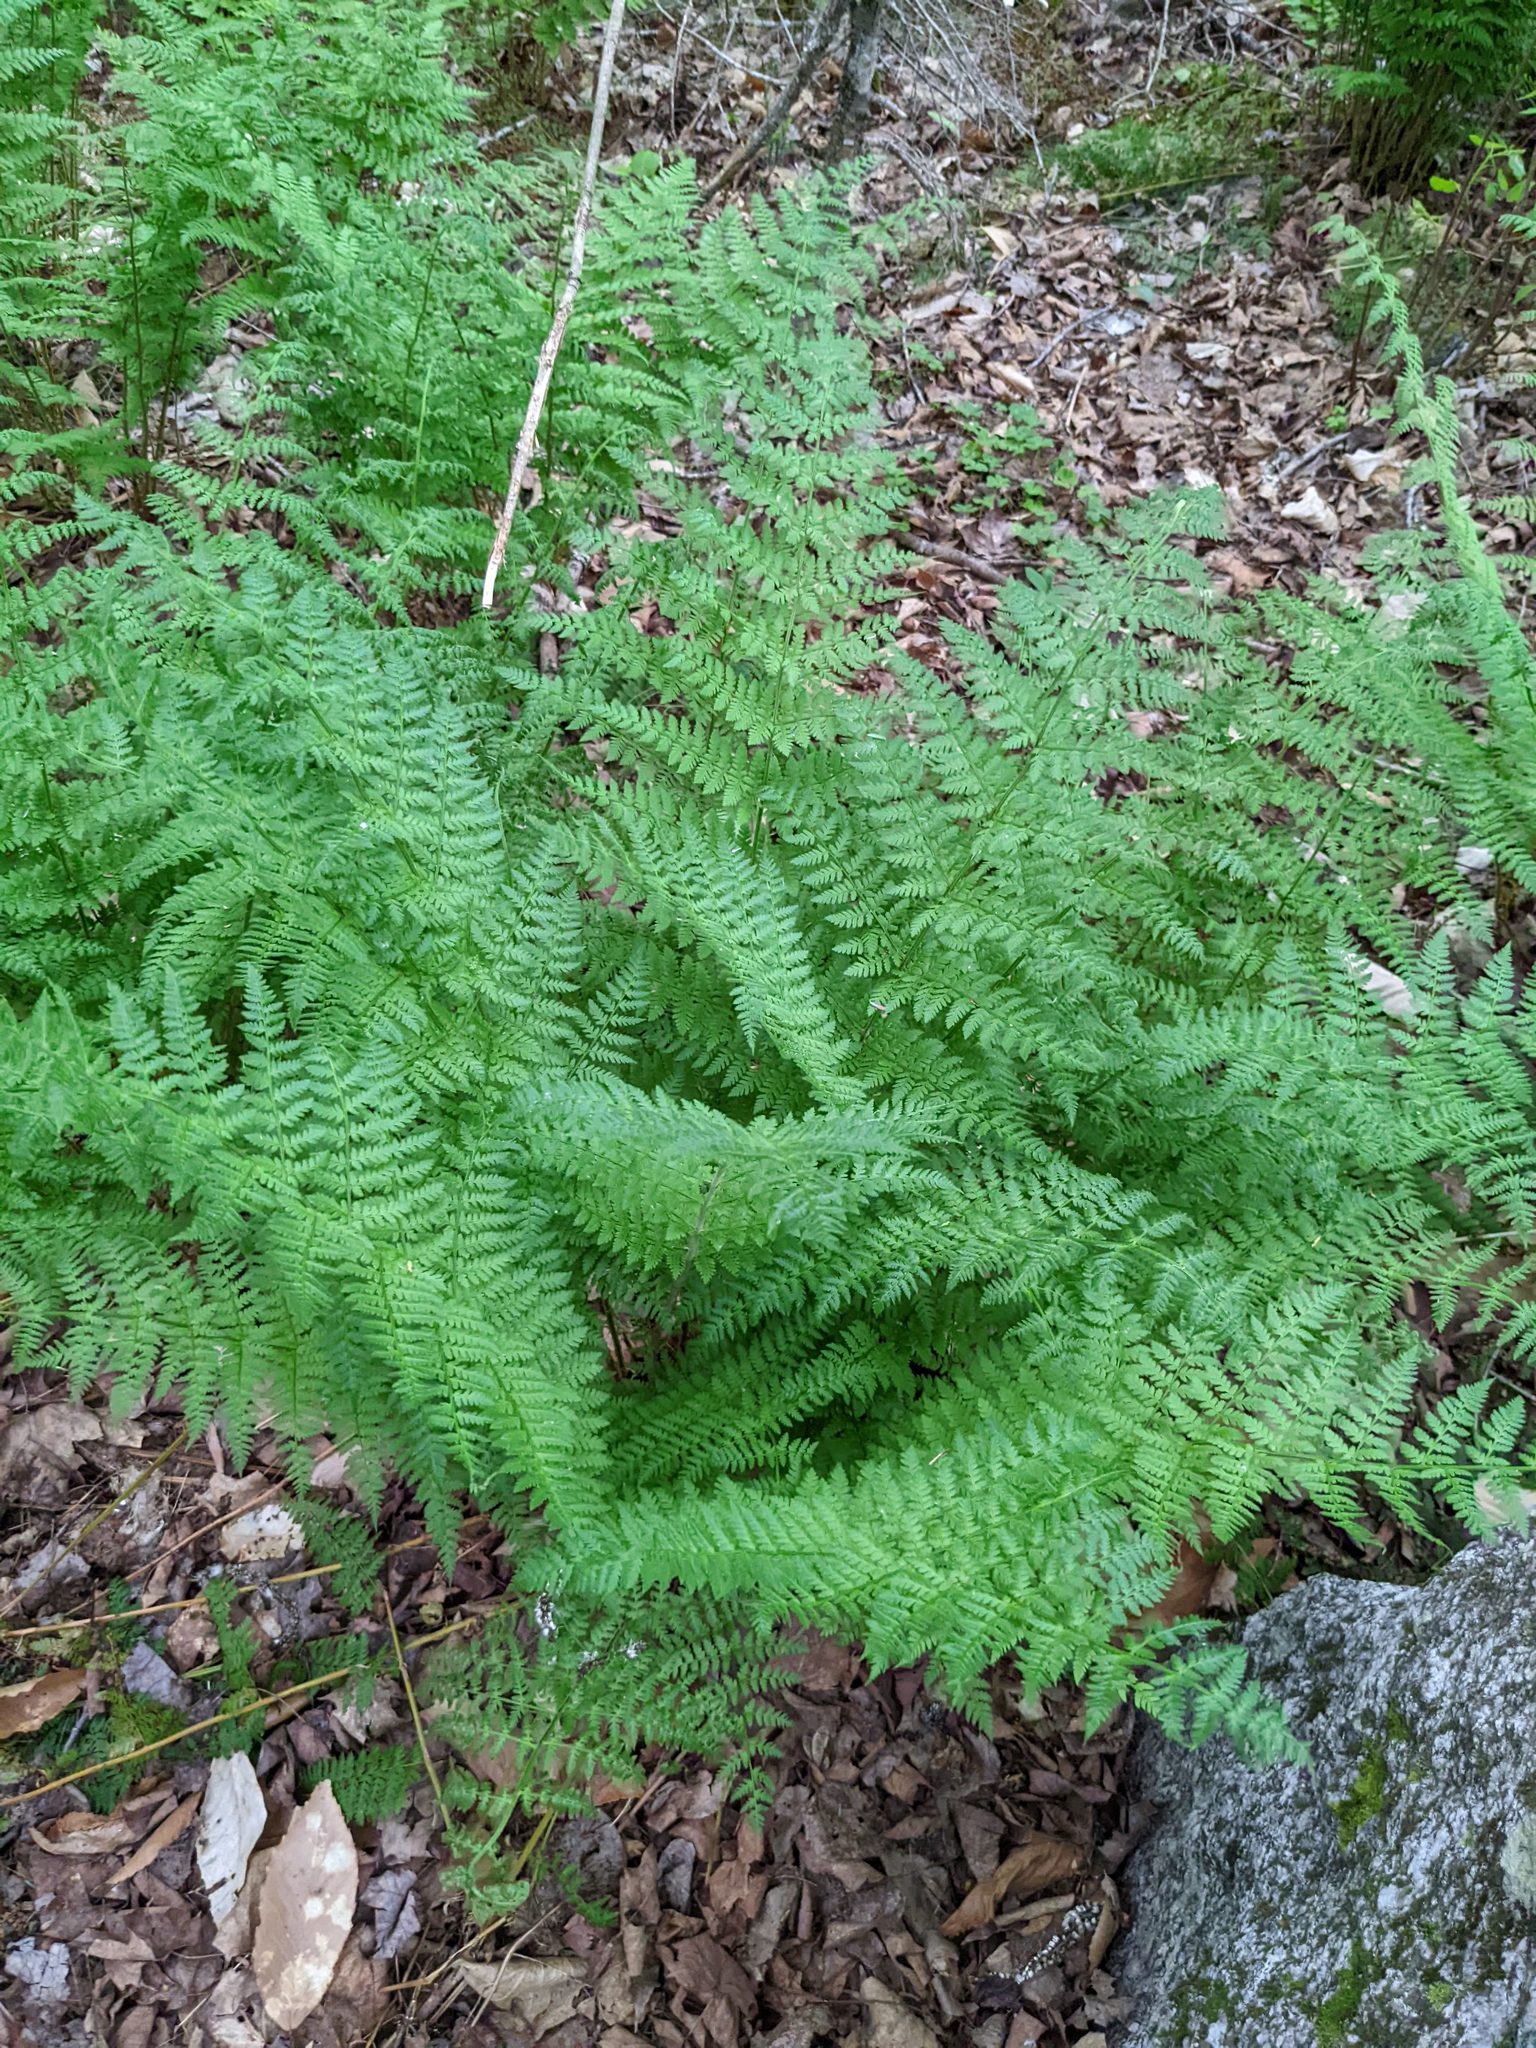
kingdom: Plantae
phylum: Tracheophyta
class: Polypodiopsida
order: Polypodiales
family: Athyriaceae
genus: Athyrium
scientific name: Athyrium angustum
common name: Northern lady fern
